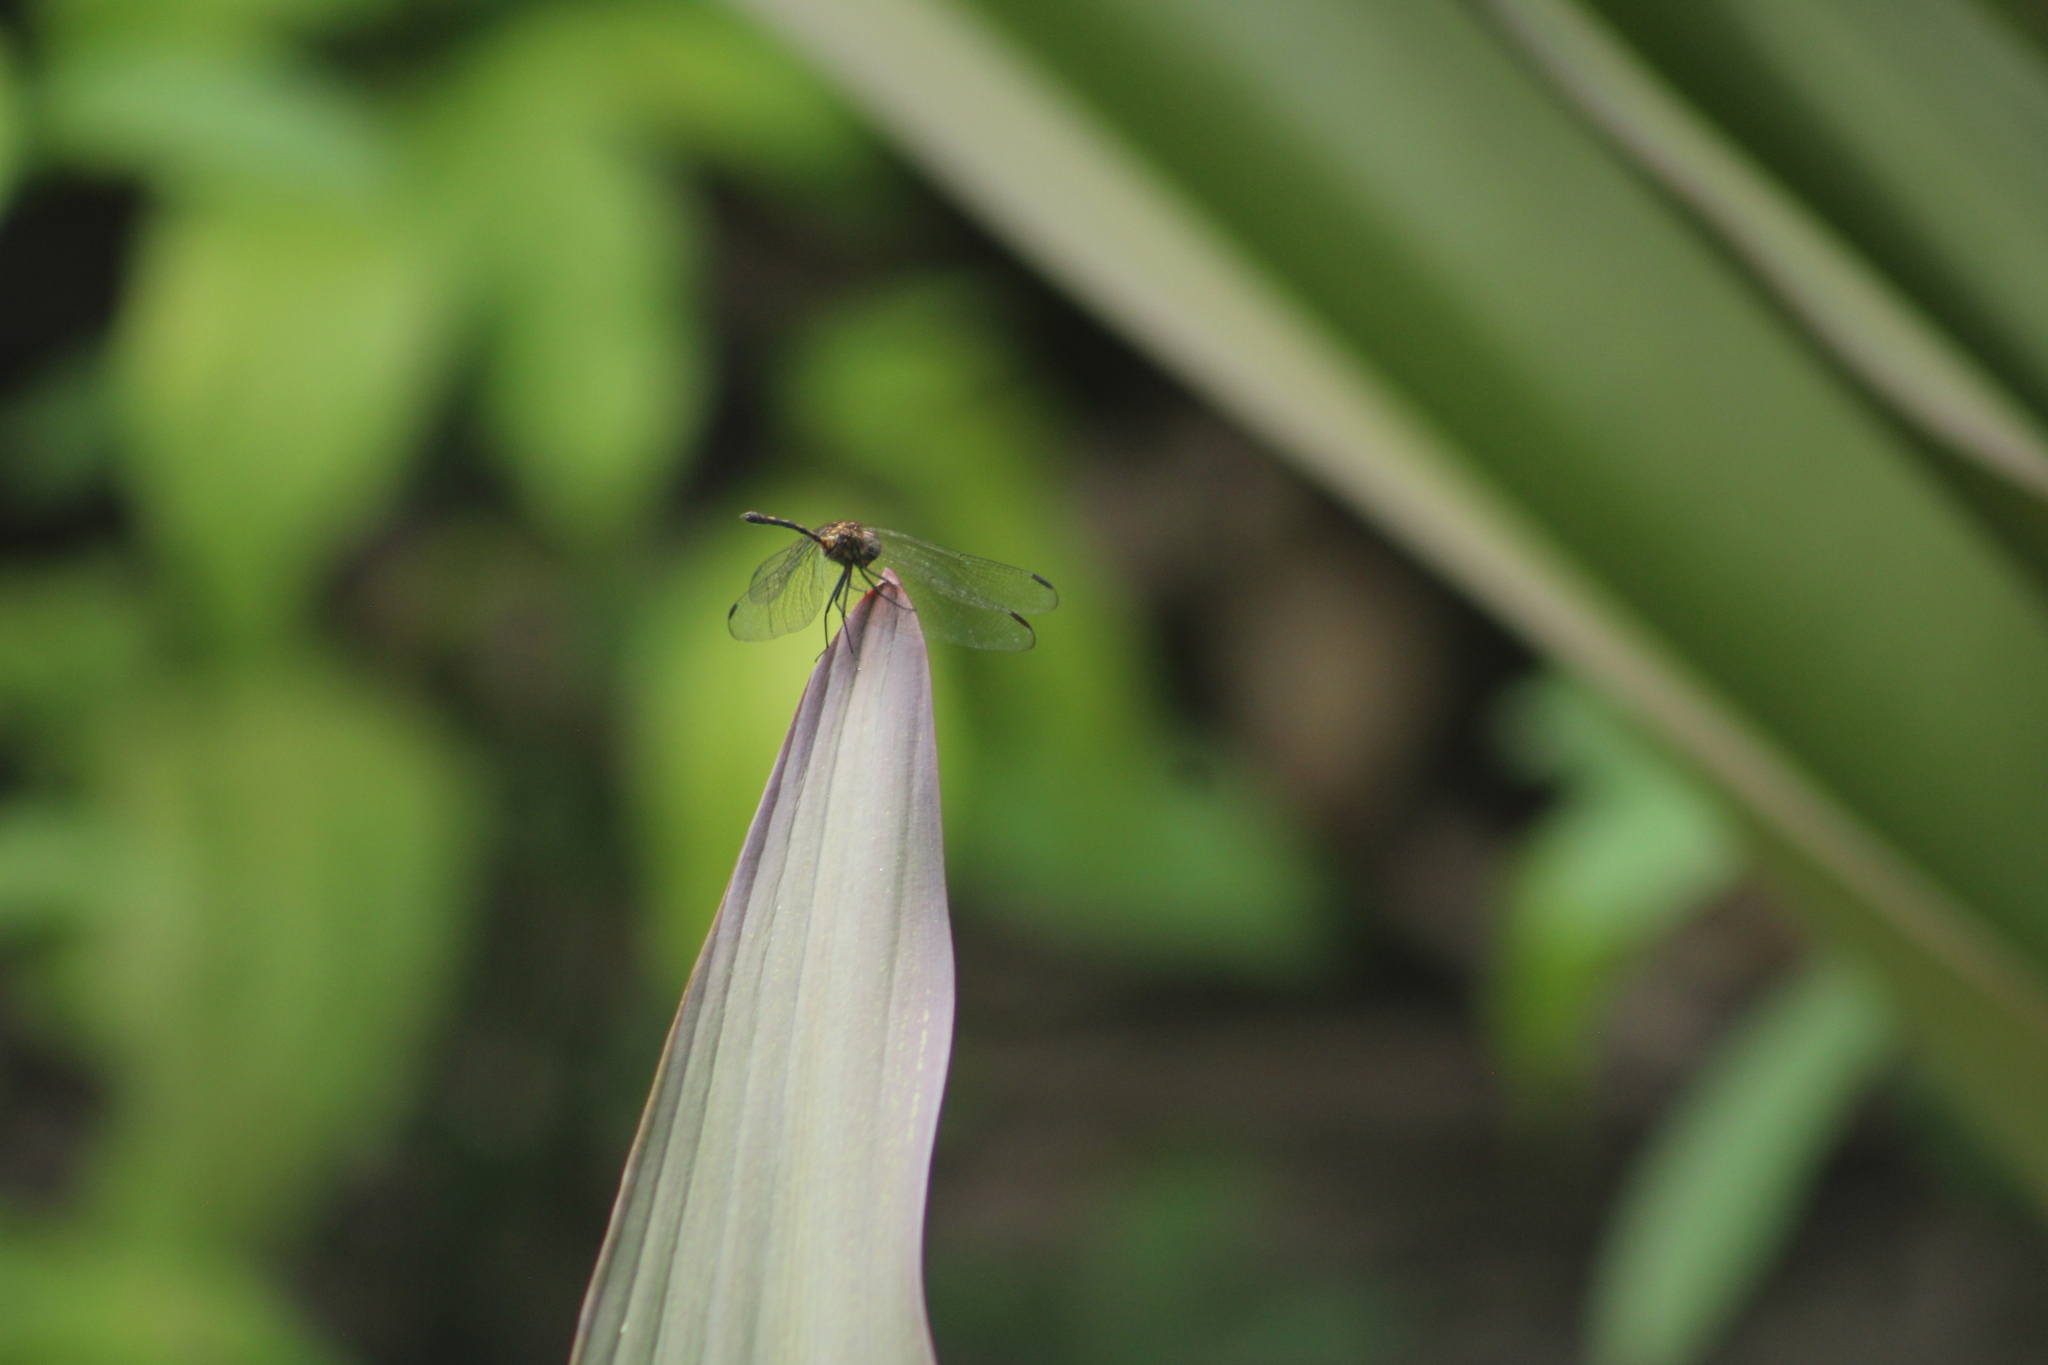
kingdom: Animalia
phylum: Arthropoda
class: Insecta
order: Odonata
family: Libellulidae
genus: Dythemis
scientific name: Dythemis sterilis
